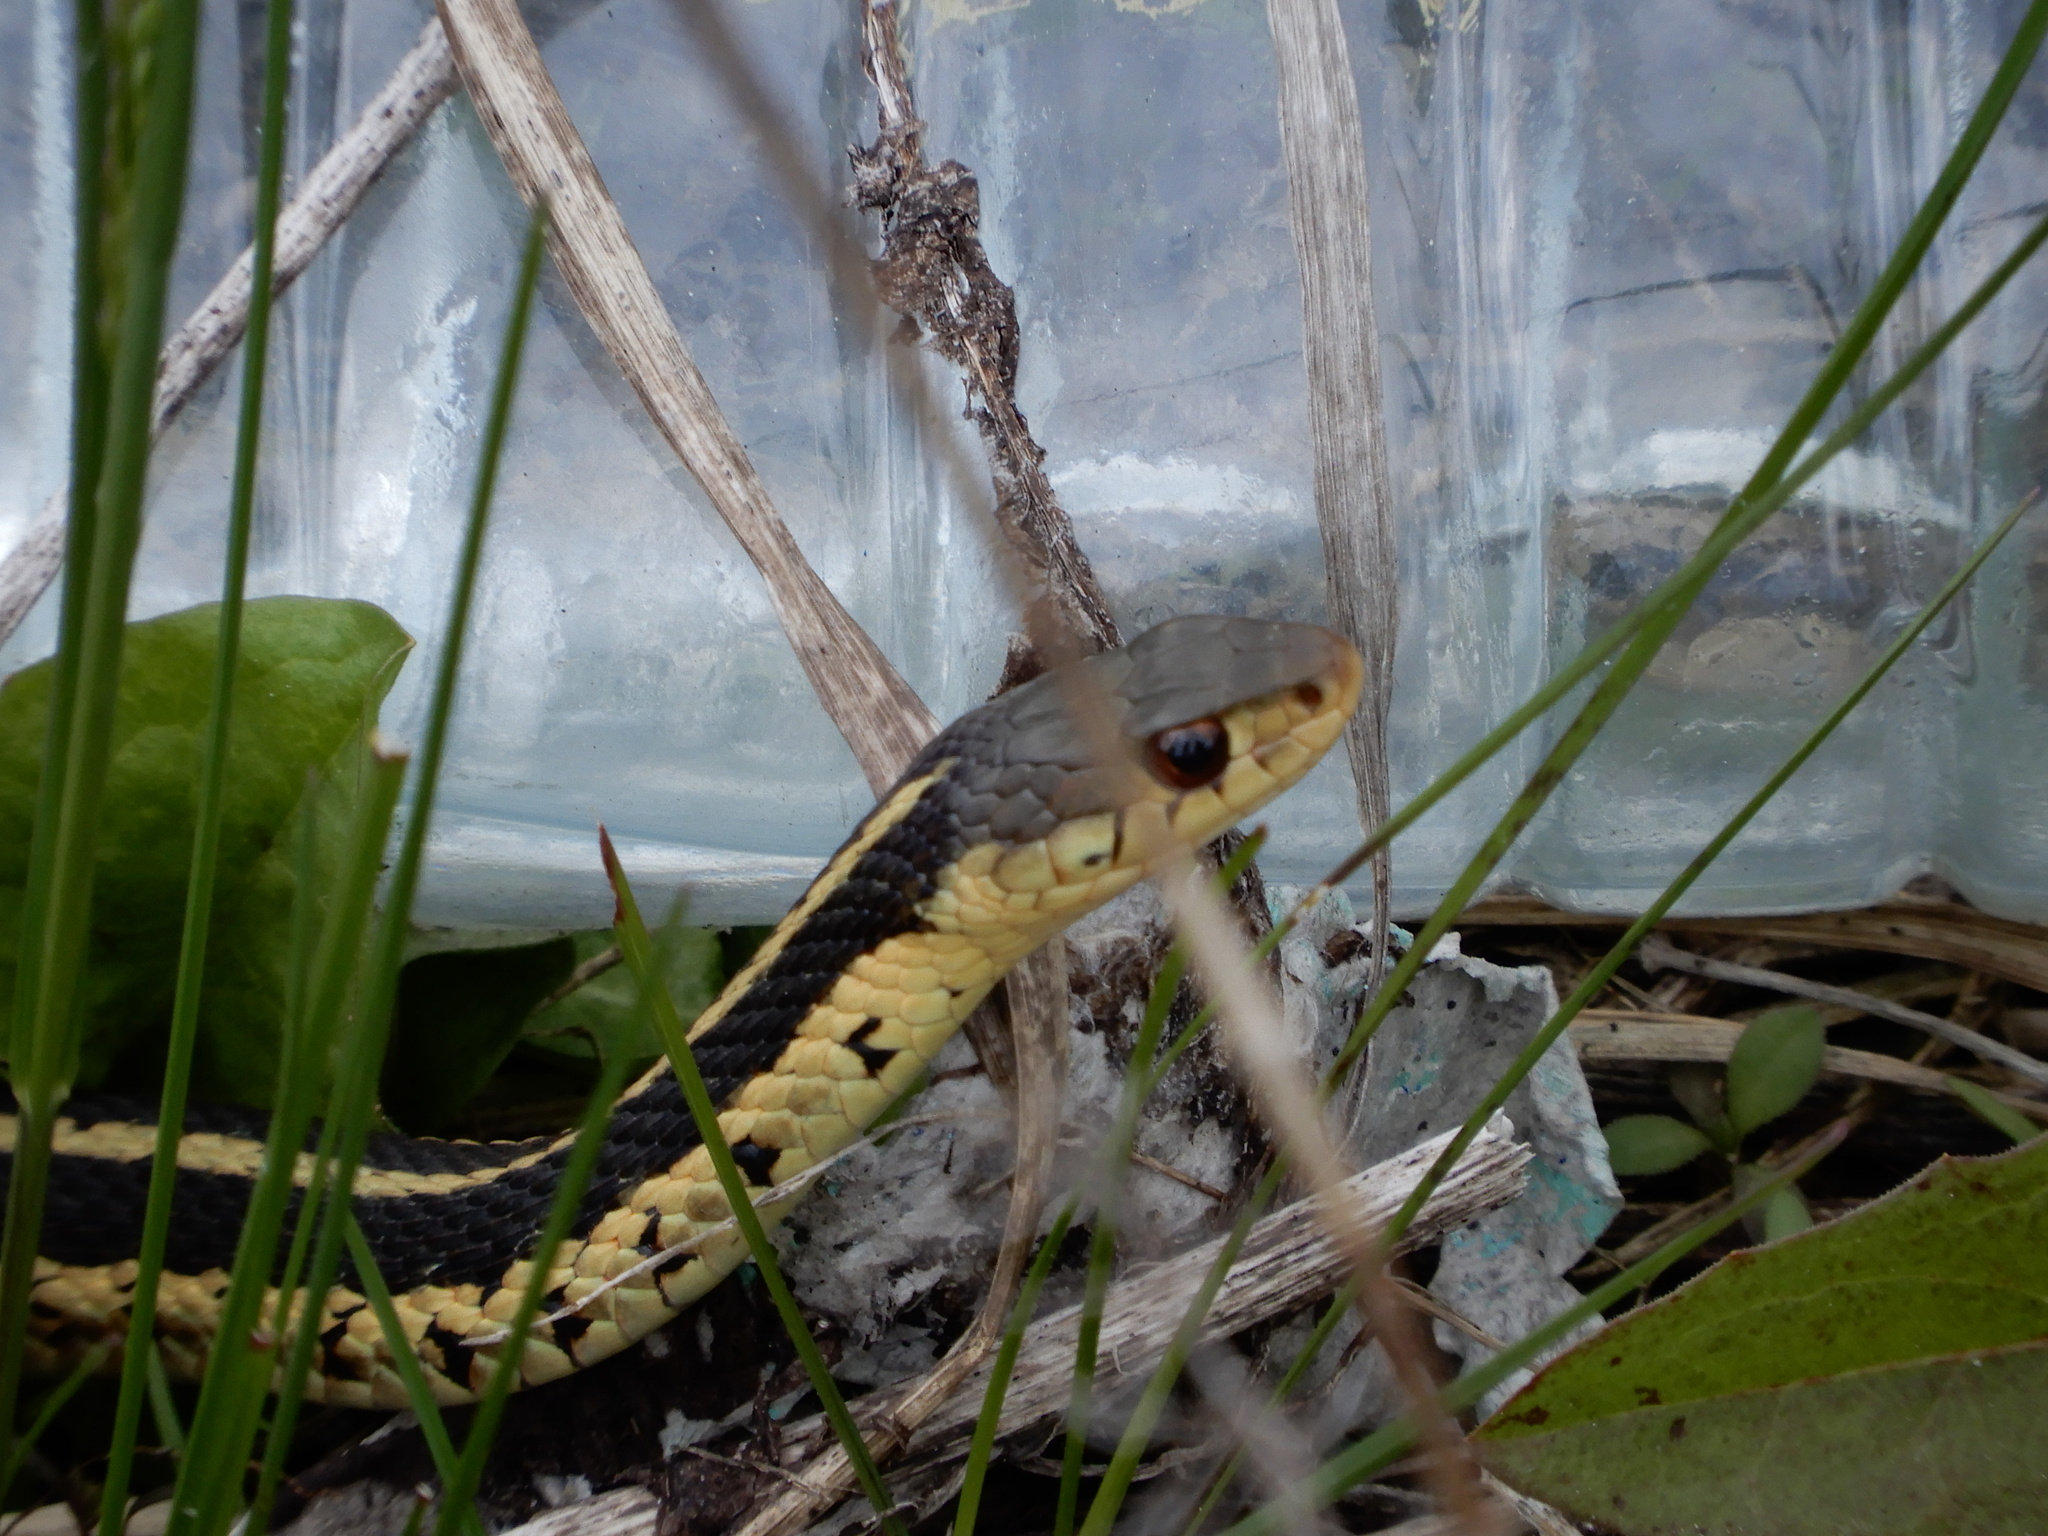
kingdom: Animalia
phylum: Chordata
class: Squamata
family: Colubridae
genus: Thamnophis
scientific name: Thamnophis sirtalis
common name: Common garter snake
